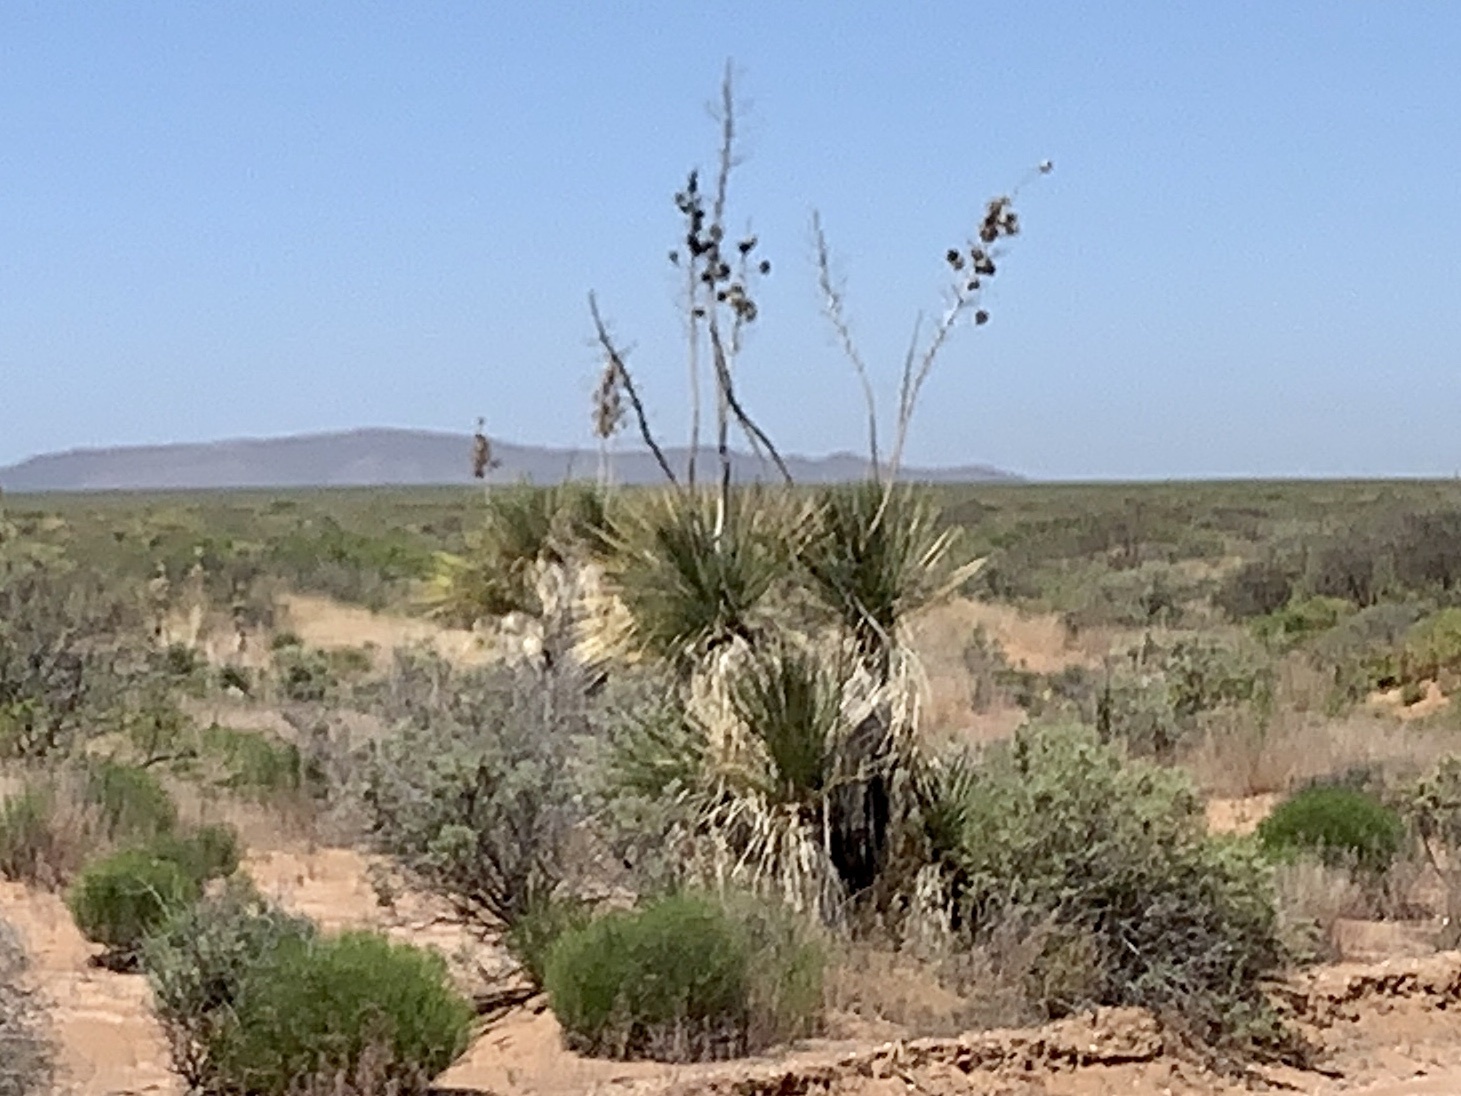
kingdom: Plantae
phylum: Tracheophyta
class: Liliopsida
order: Asparagales
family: Asparagaceae
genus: Yucca
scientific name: Yucca elata
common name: Palmella
